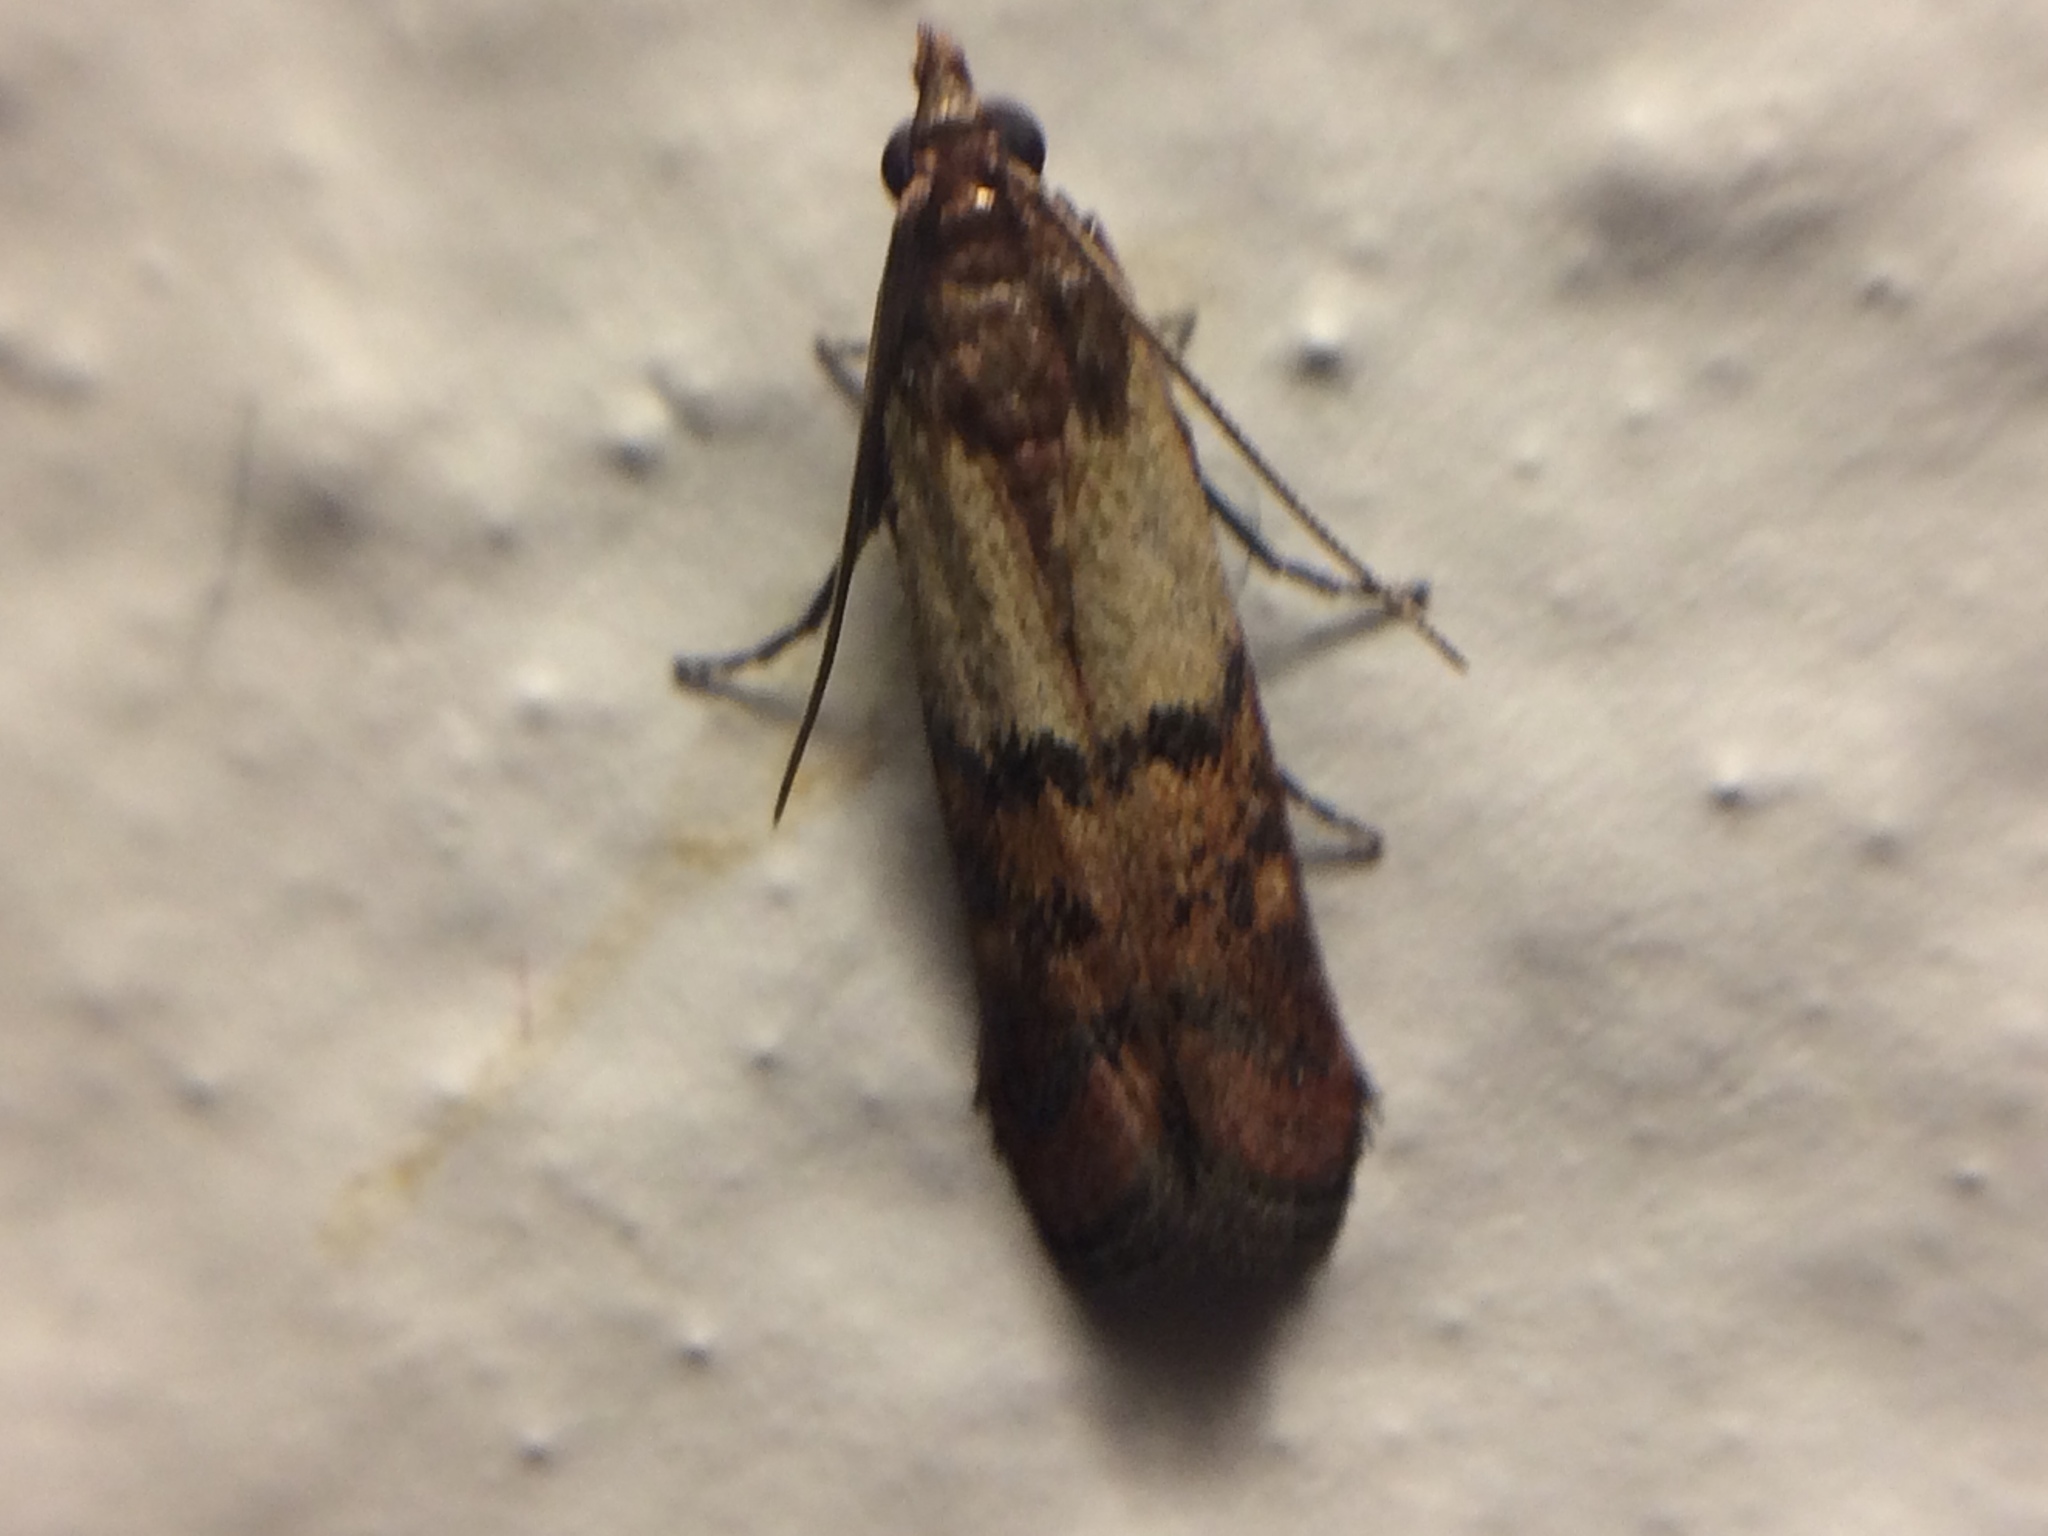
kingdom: Animalia
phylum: Arthropoda
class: Insecta
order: Lepidoptera
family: Pyralidae
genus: Plodia
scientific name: Plodia interpunctella
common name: Indian meal moth
